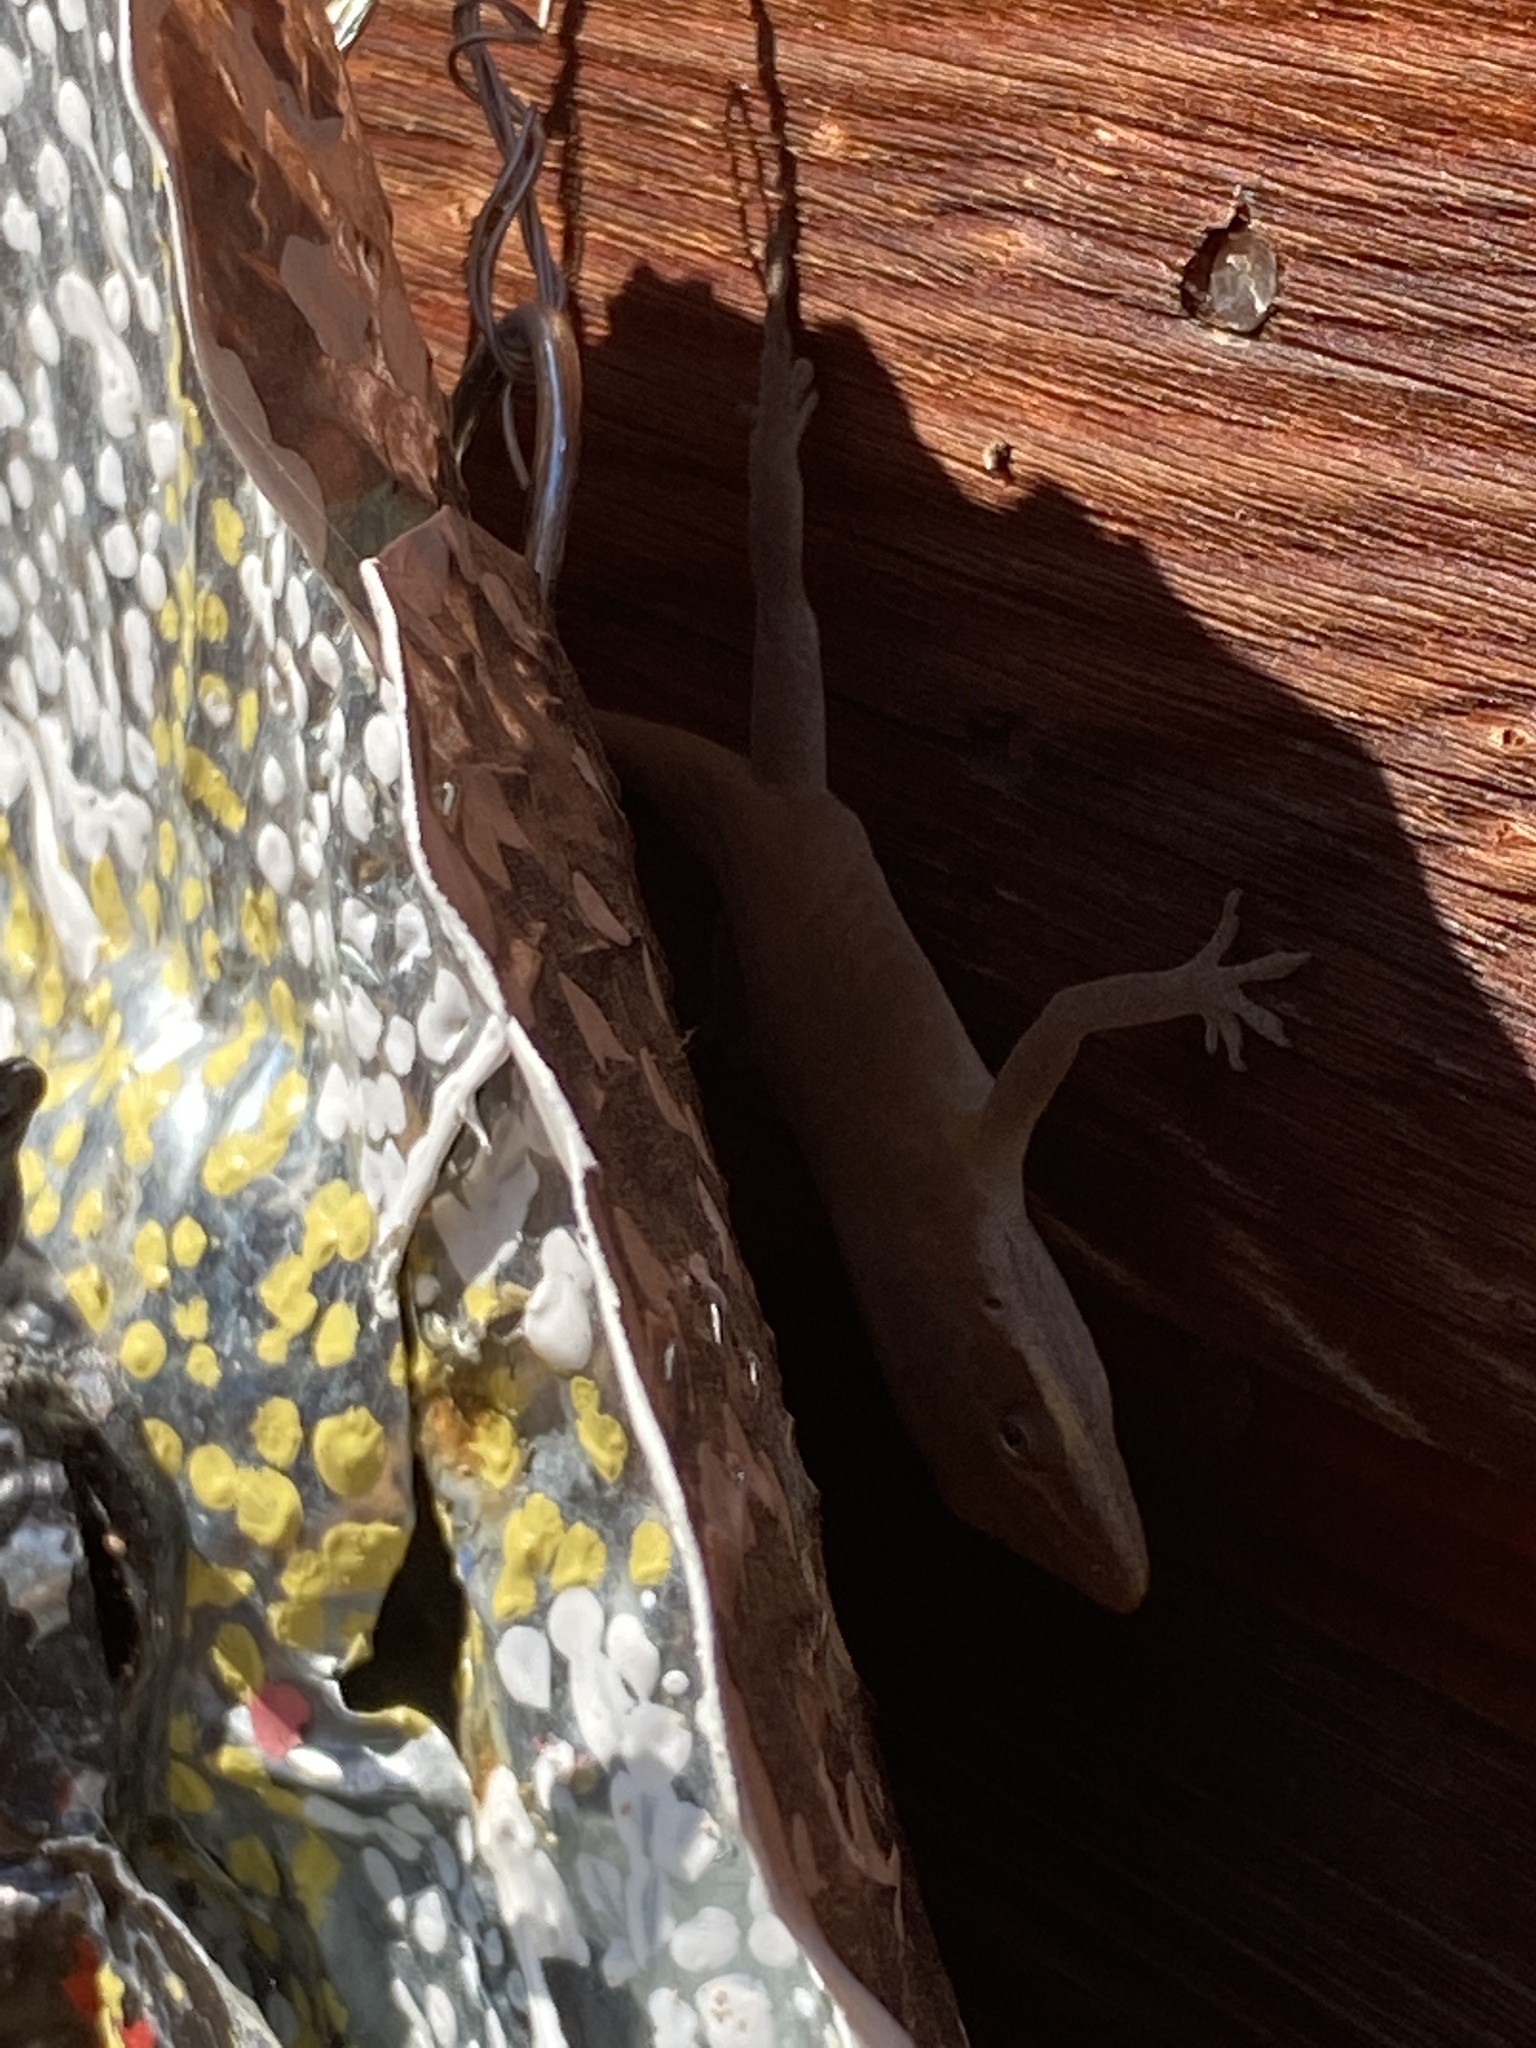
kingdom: Animalia
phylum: Chordata
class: Squamata
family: Dactyloidae
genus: Anolis
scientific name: Anolis carolinensis
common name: Green anole
